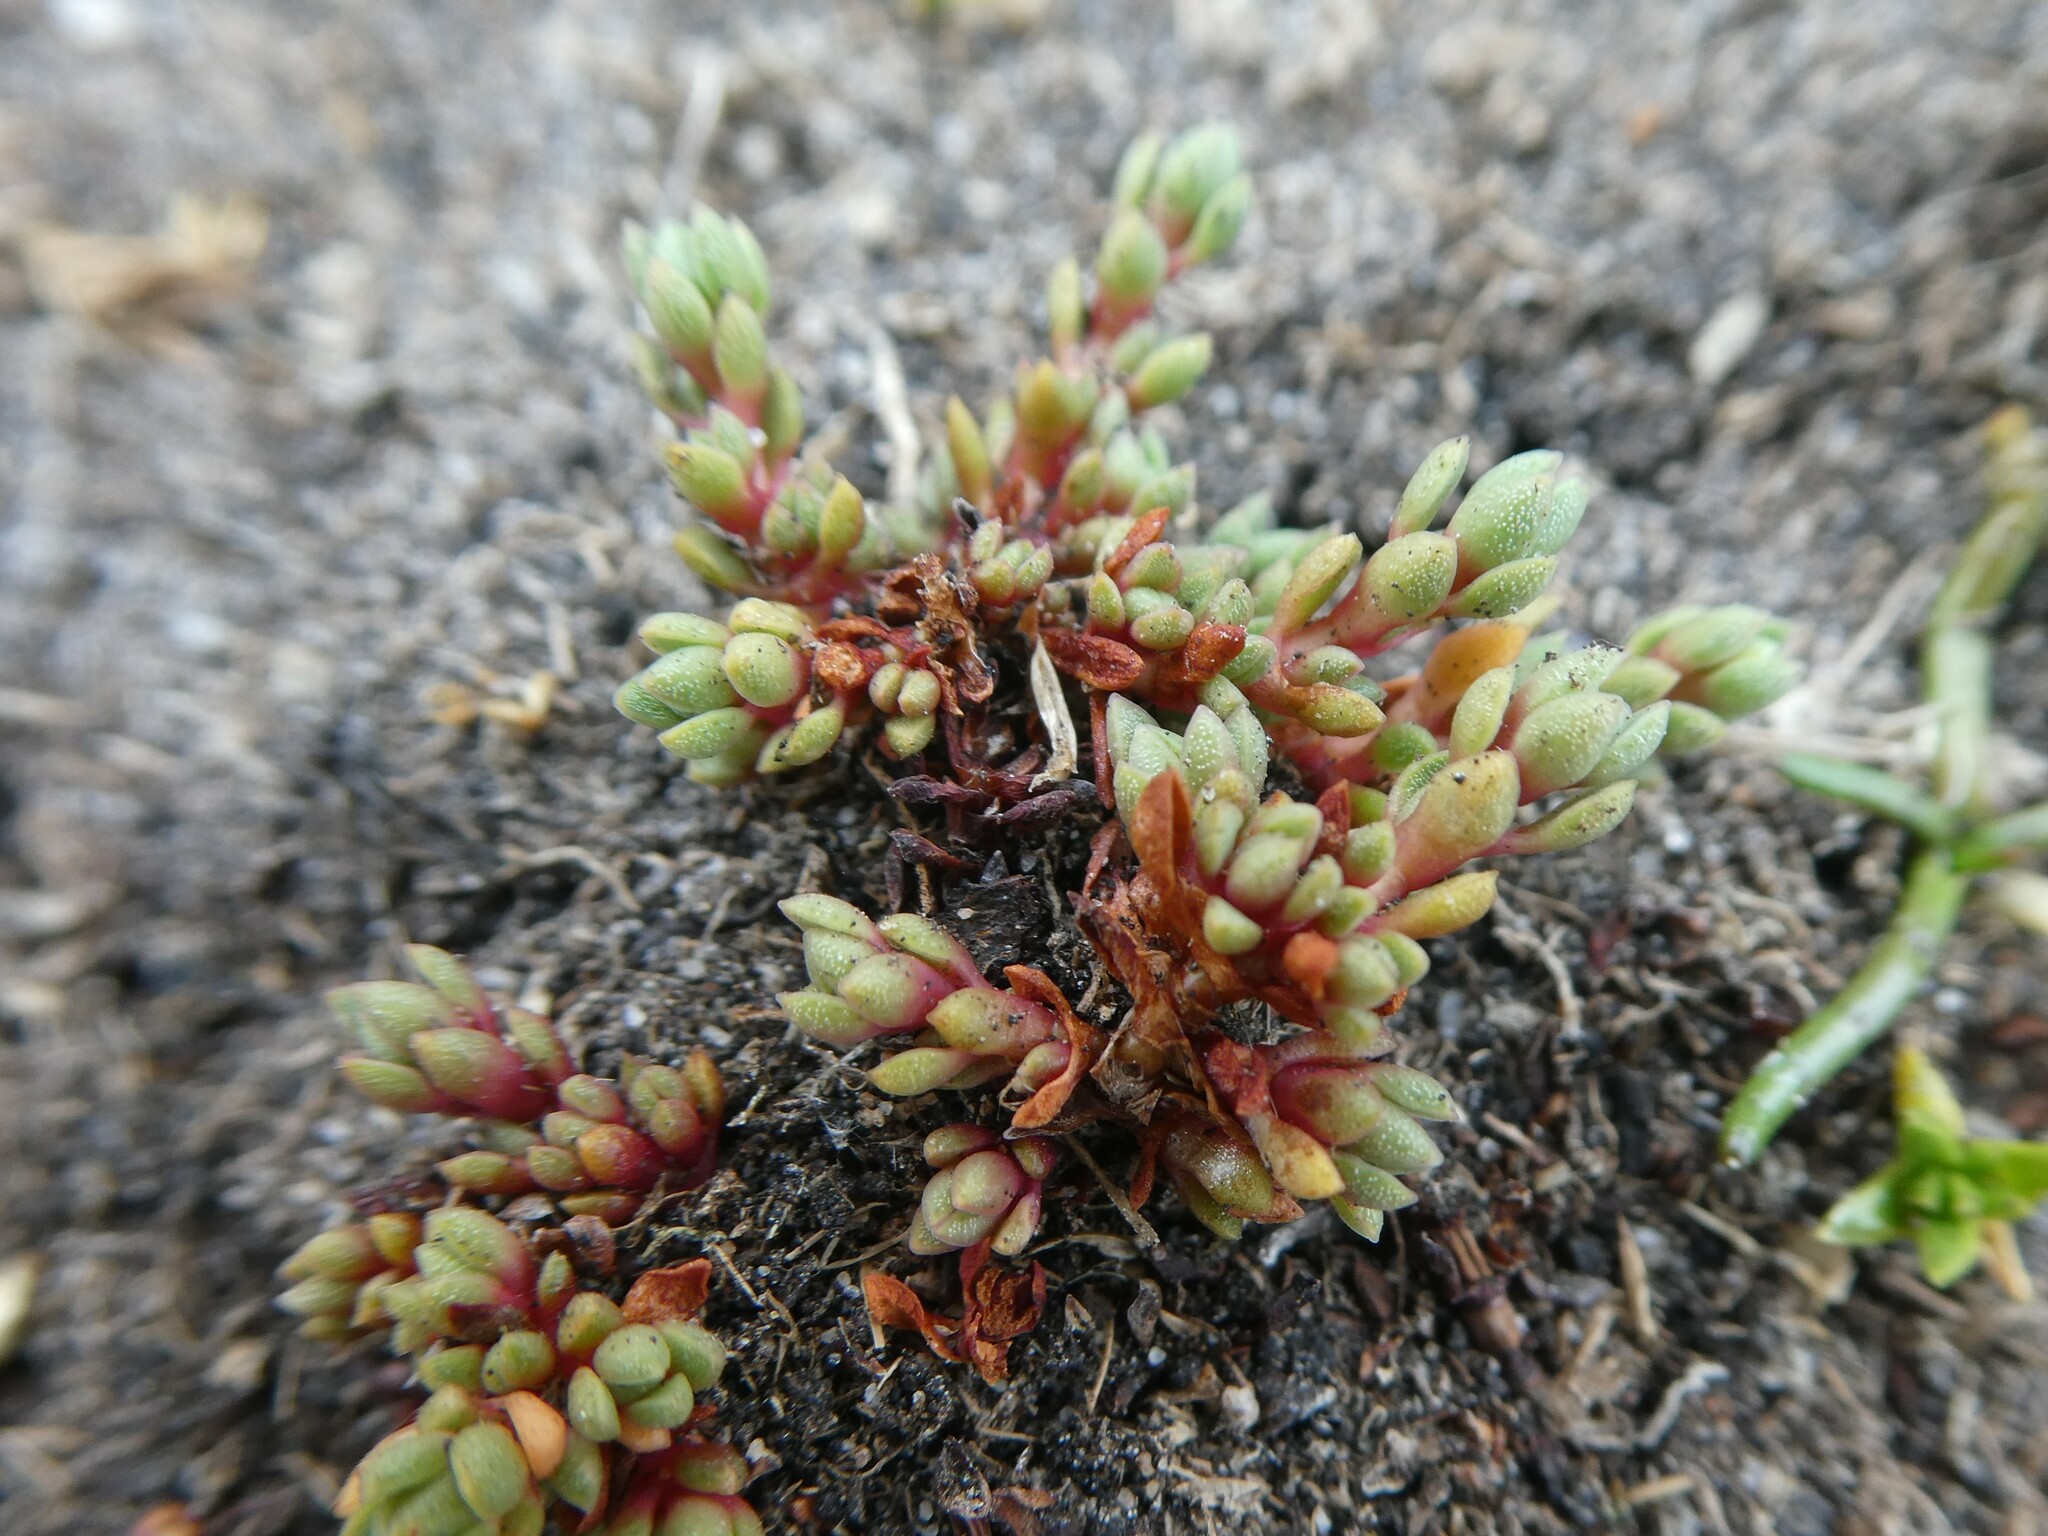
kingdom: Plantae
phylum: Tracheophyta
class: Magnoliopsida
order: Saxifragales
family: Crassulaceae
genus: Crassula
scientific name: Crassula moschata
